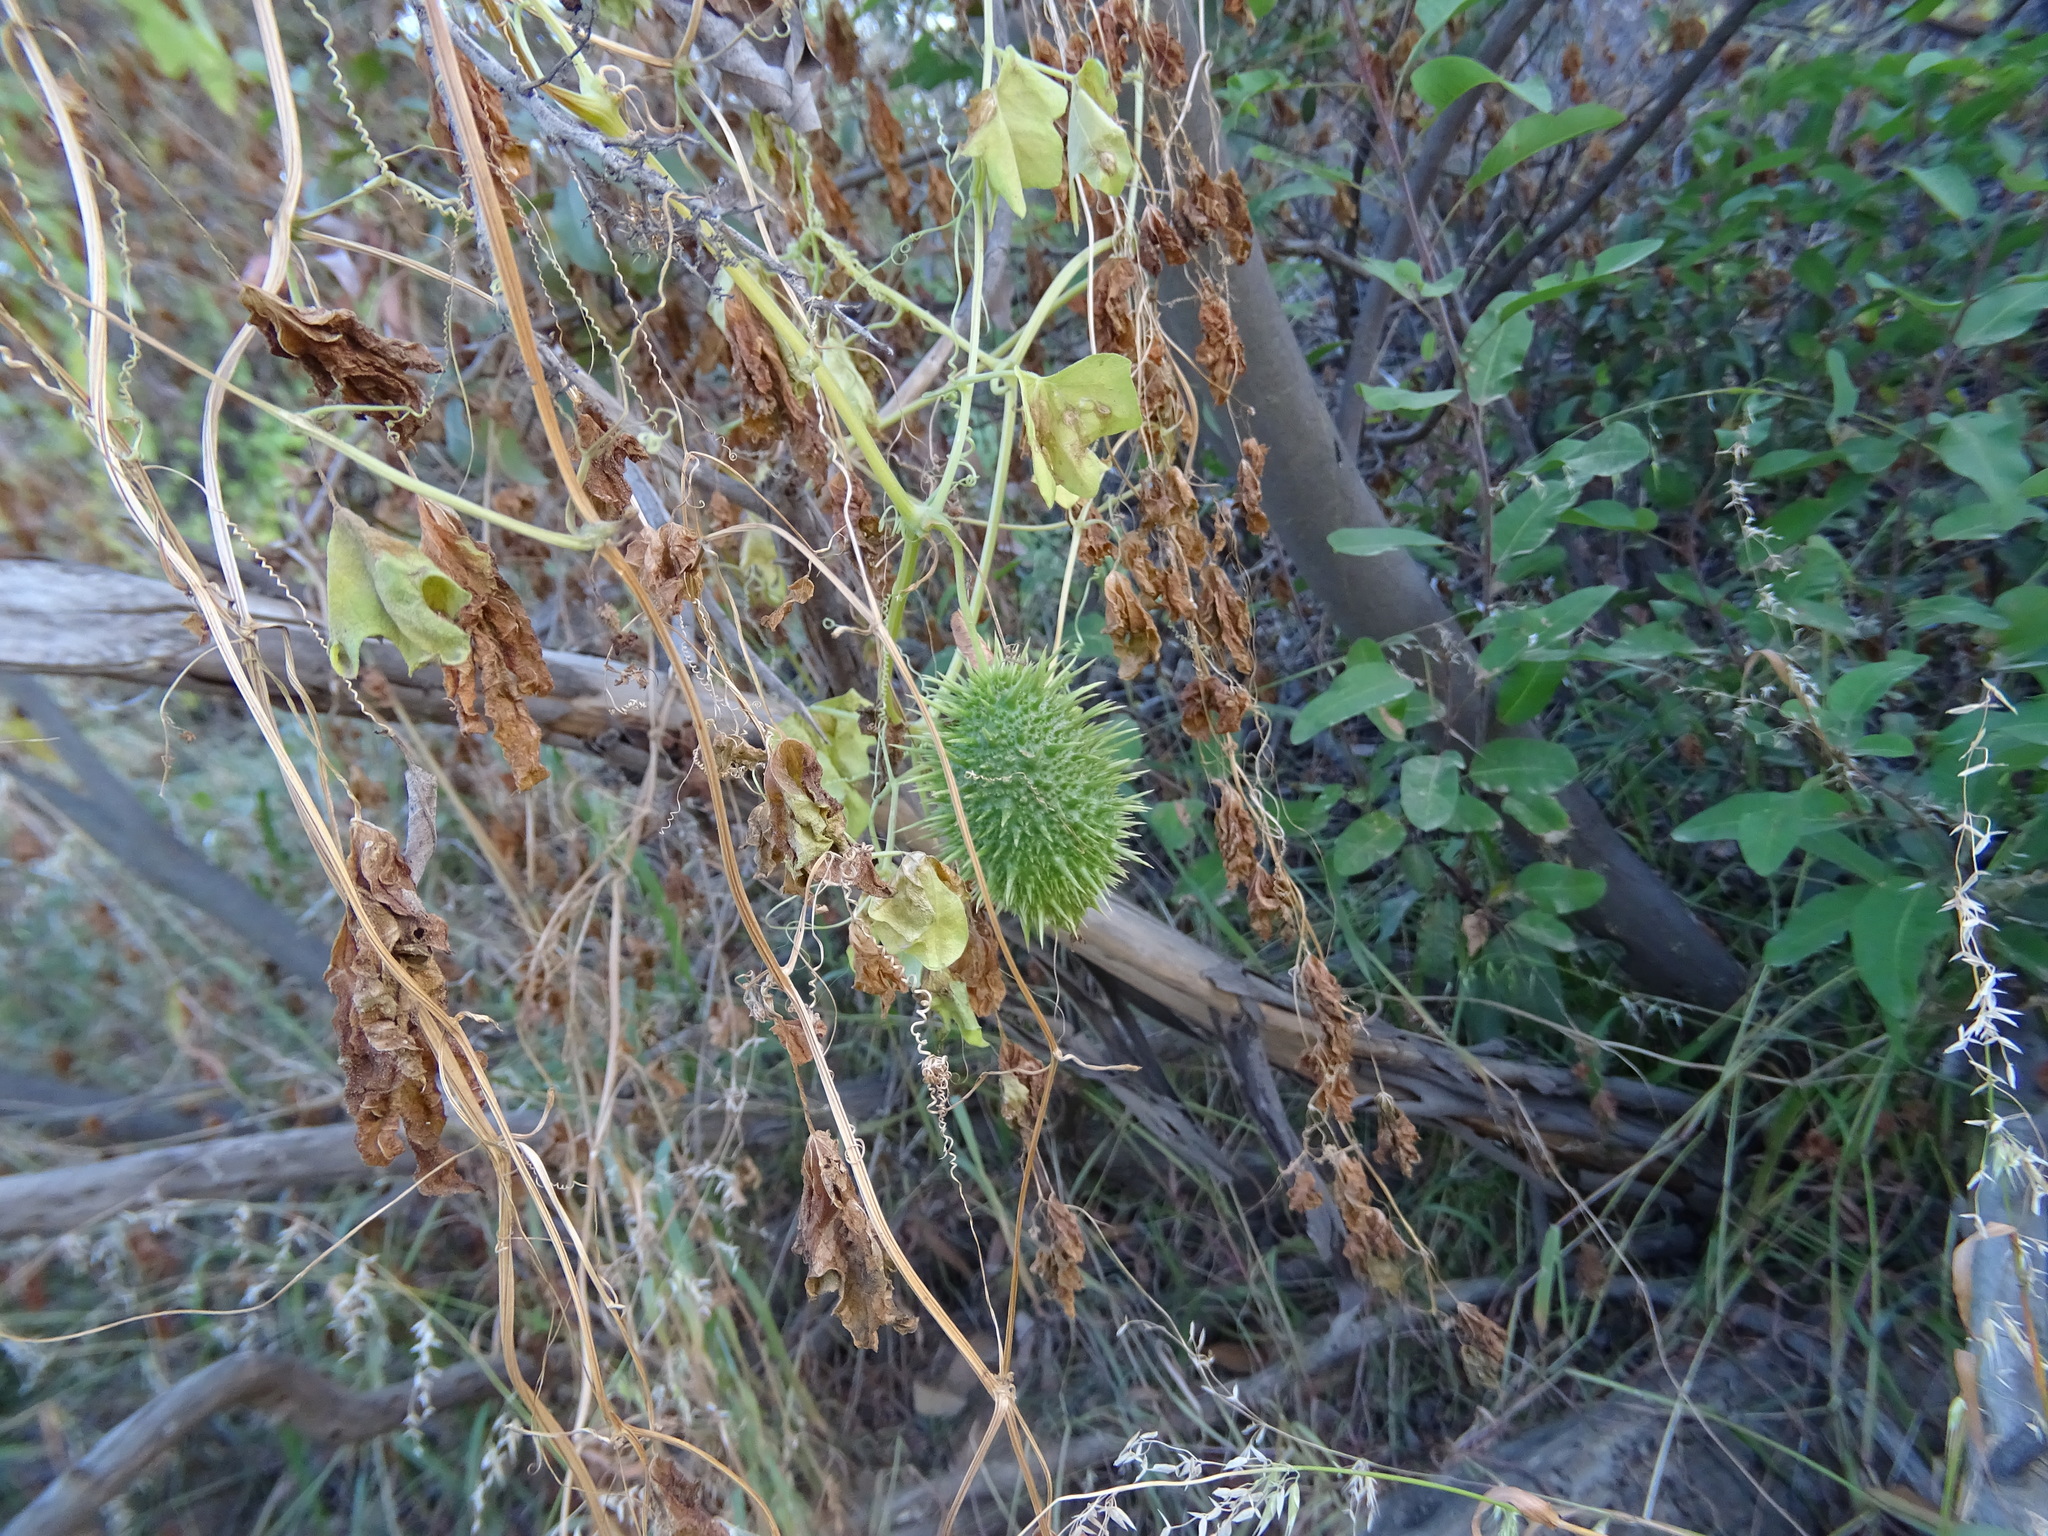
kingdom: Plantae
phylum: Tracheophyta
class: Magnoliopsida
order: Cucurbitales
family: Cucurbitaceae
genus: Marah
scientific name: Marah macrocarpa
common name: Cucamonga manroot
